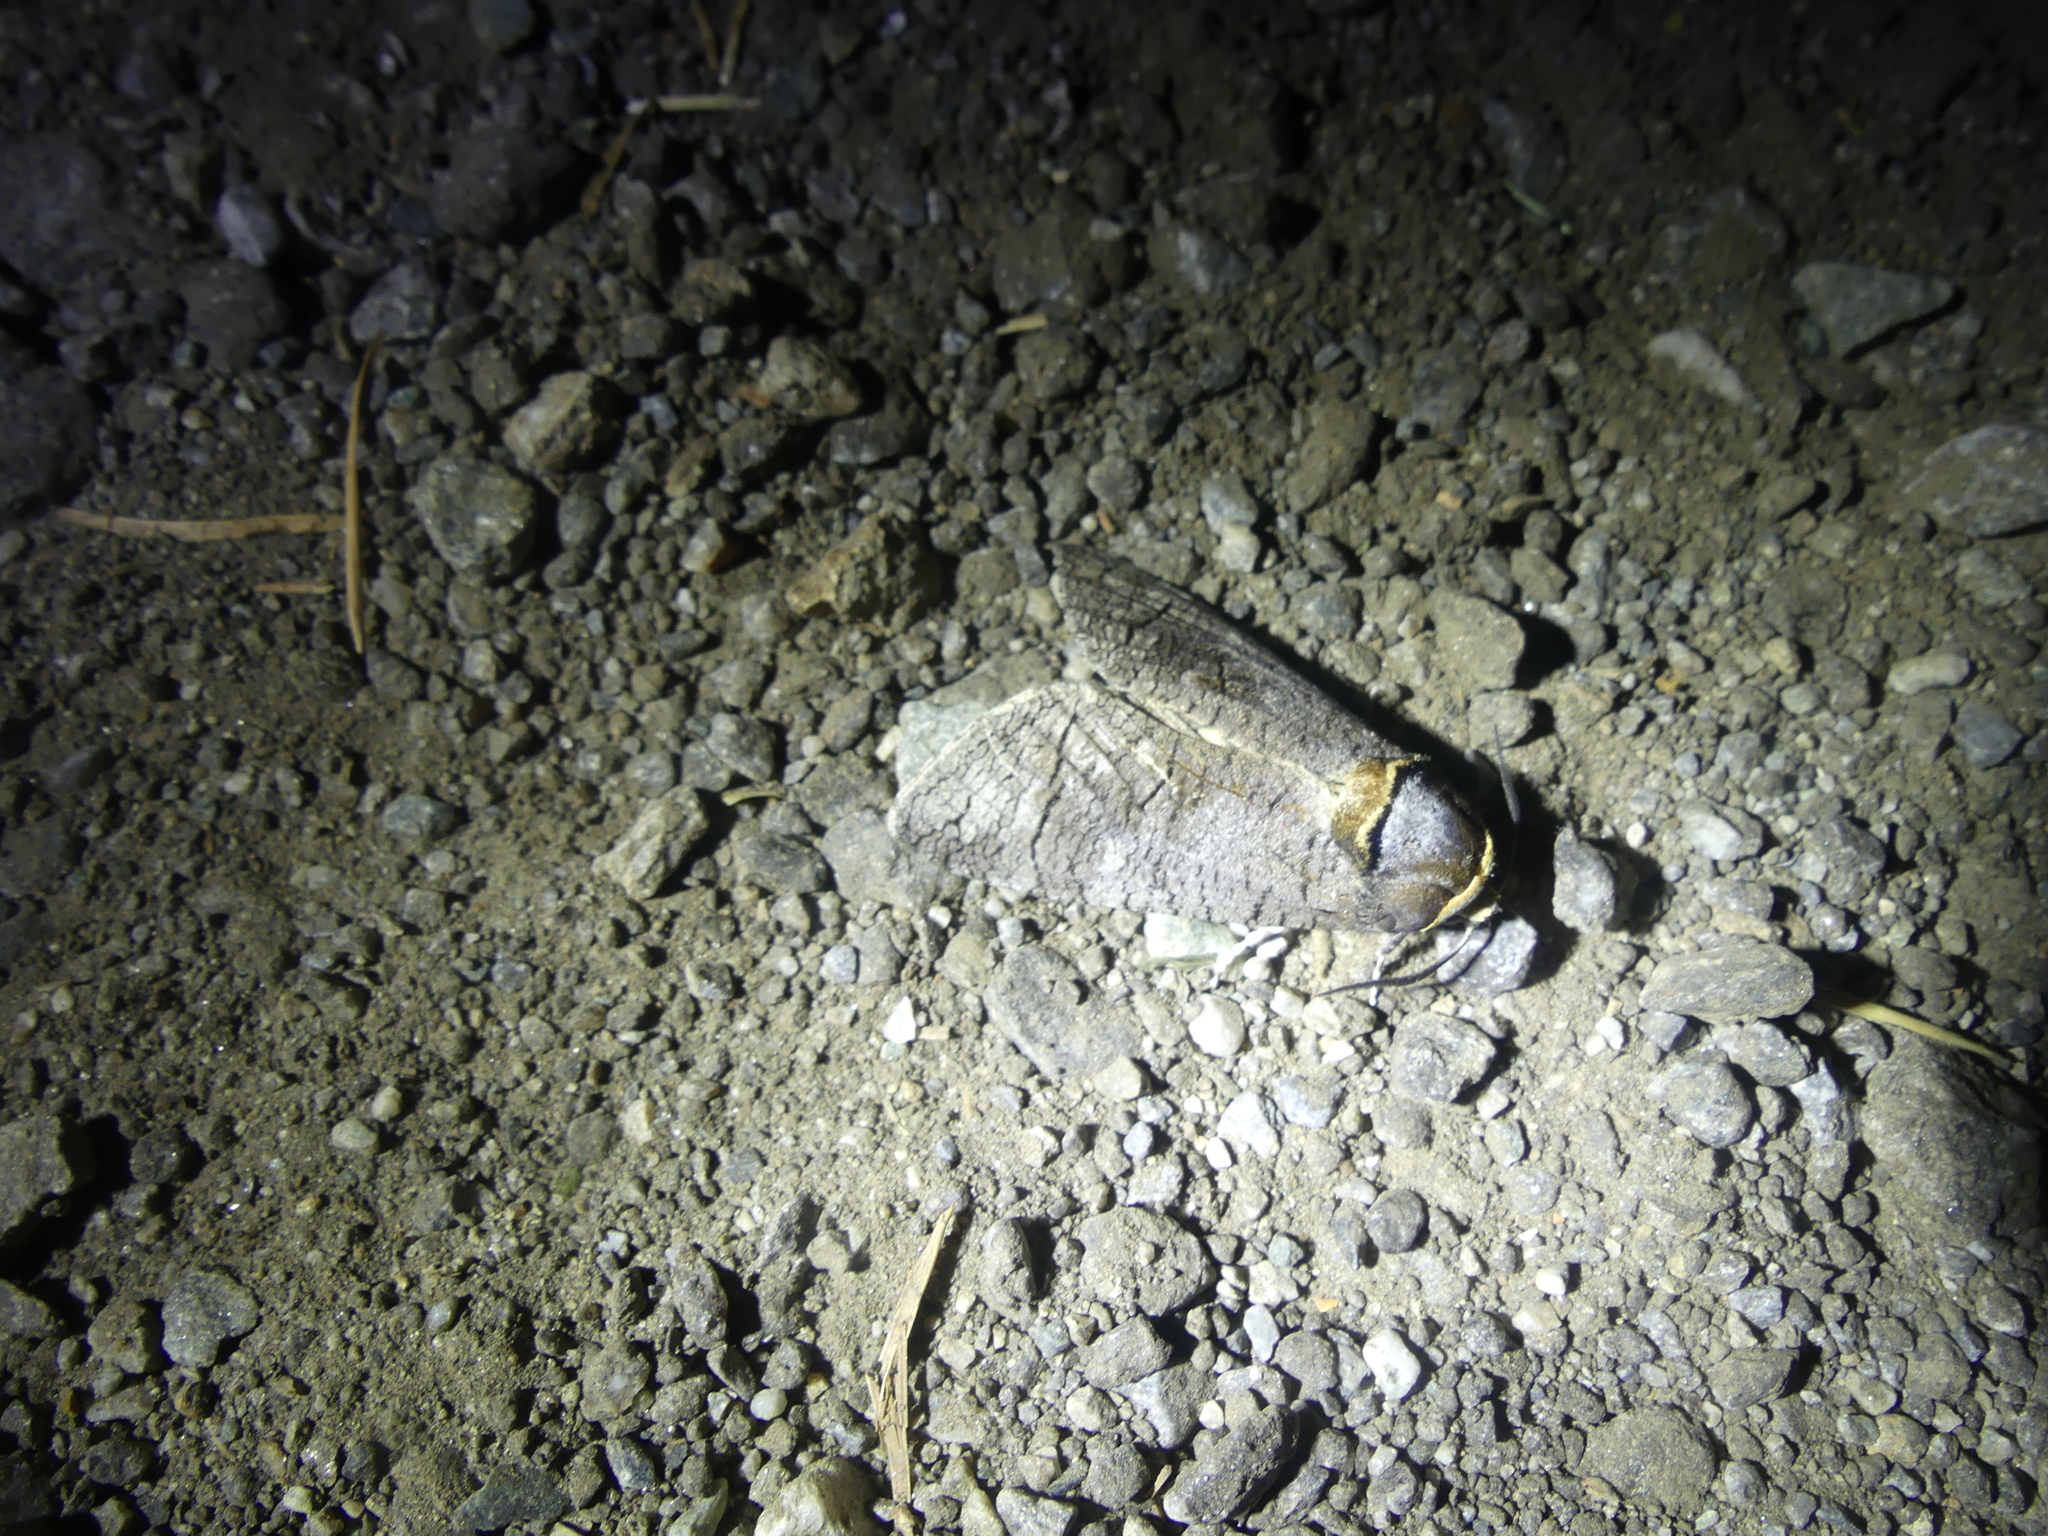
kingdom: Animalia
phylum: Arthropoda
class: Insecta
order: Lepidoptera
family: Cossidae
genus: Cossus
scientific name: Cossus cossus
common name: Goat moth
